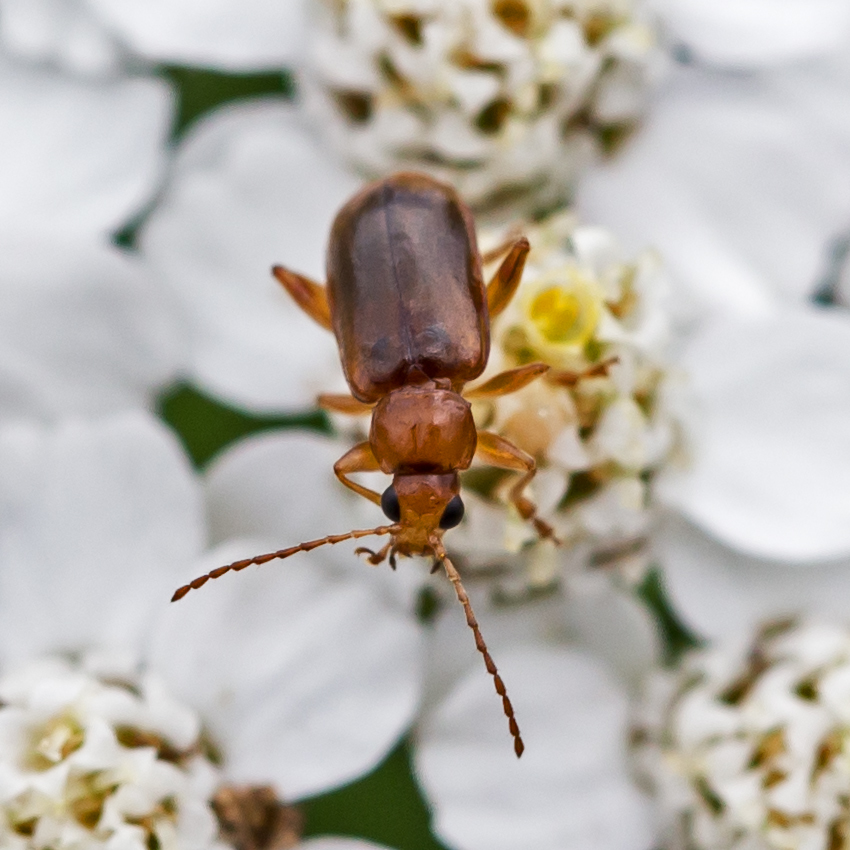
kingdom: Animalia
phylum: Arthropoda
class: Insecta
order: Coleoptera
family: Chrysomelidae
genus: Luperaltica
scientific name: Luperaltica nigripalpis
